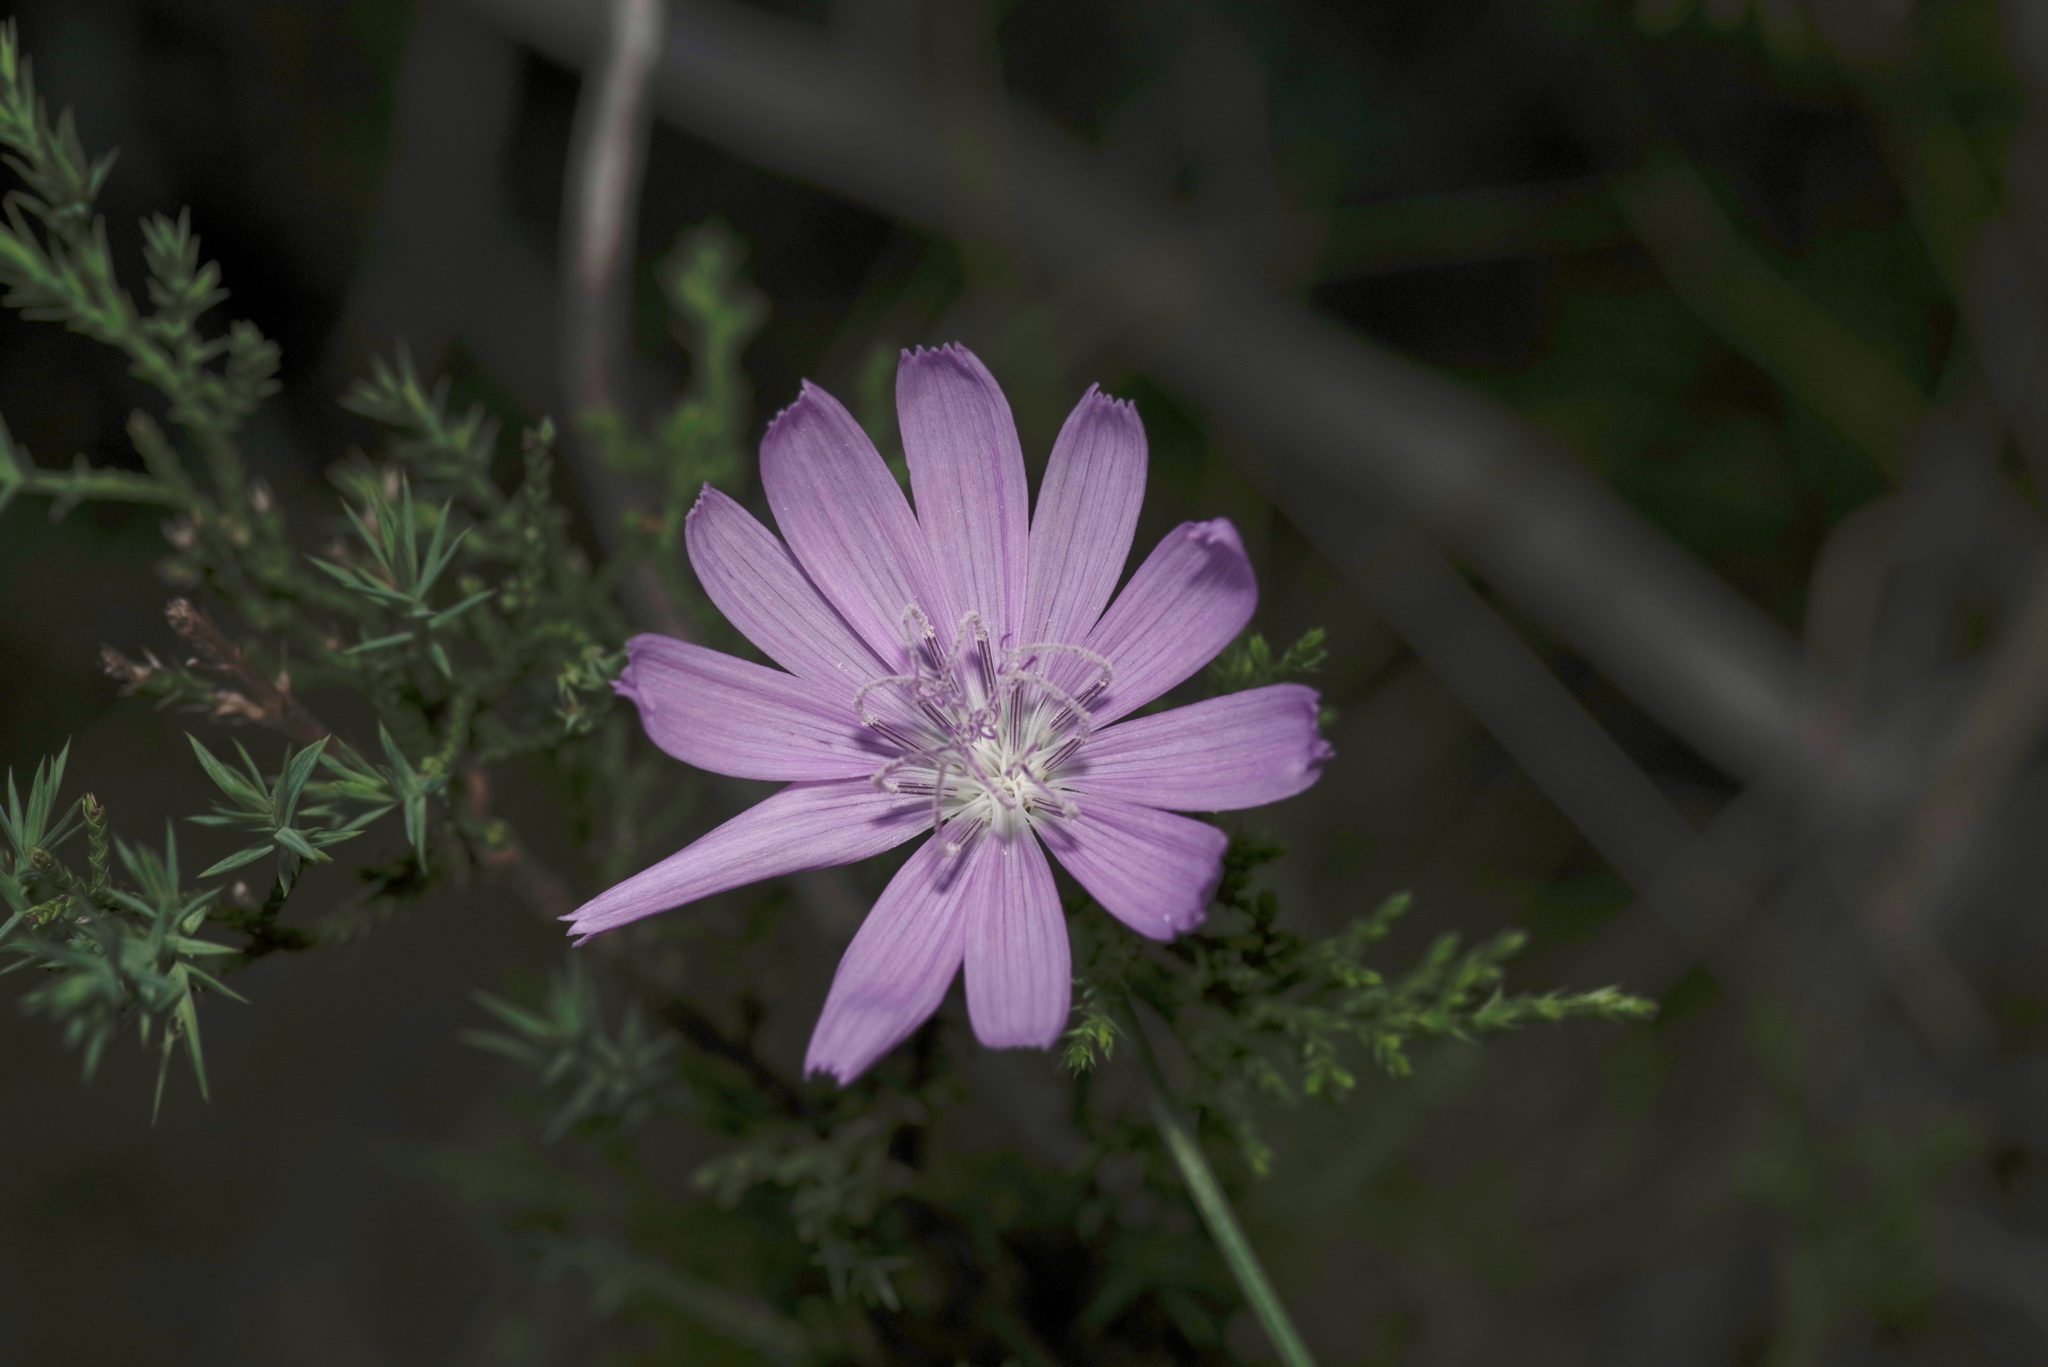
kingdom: Plantae
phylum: Tracheophyta
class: Magnoliopsida
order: Asterales
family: Asteraceae
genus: Lygodesmia
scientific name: Lygodesmia texana
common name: Texas skeleton-plant
